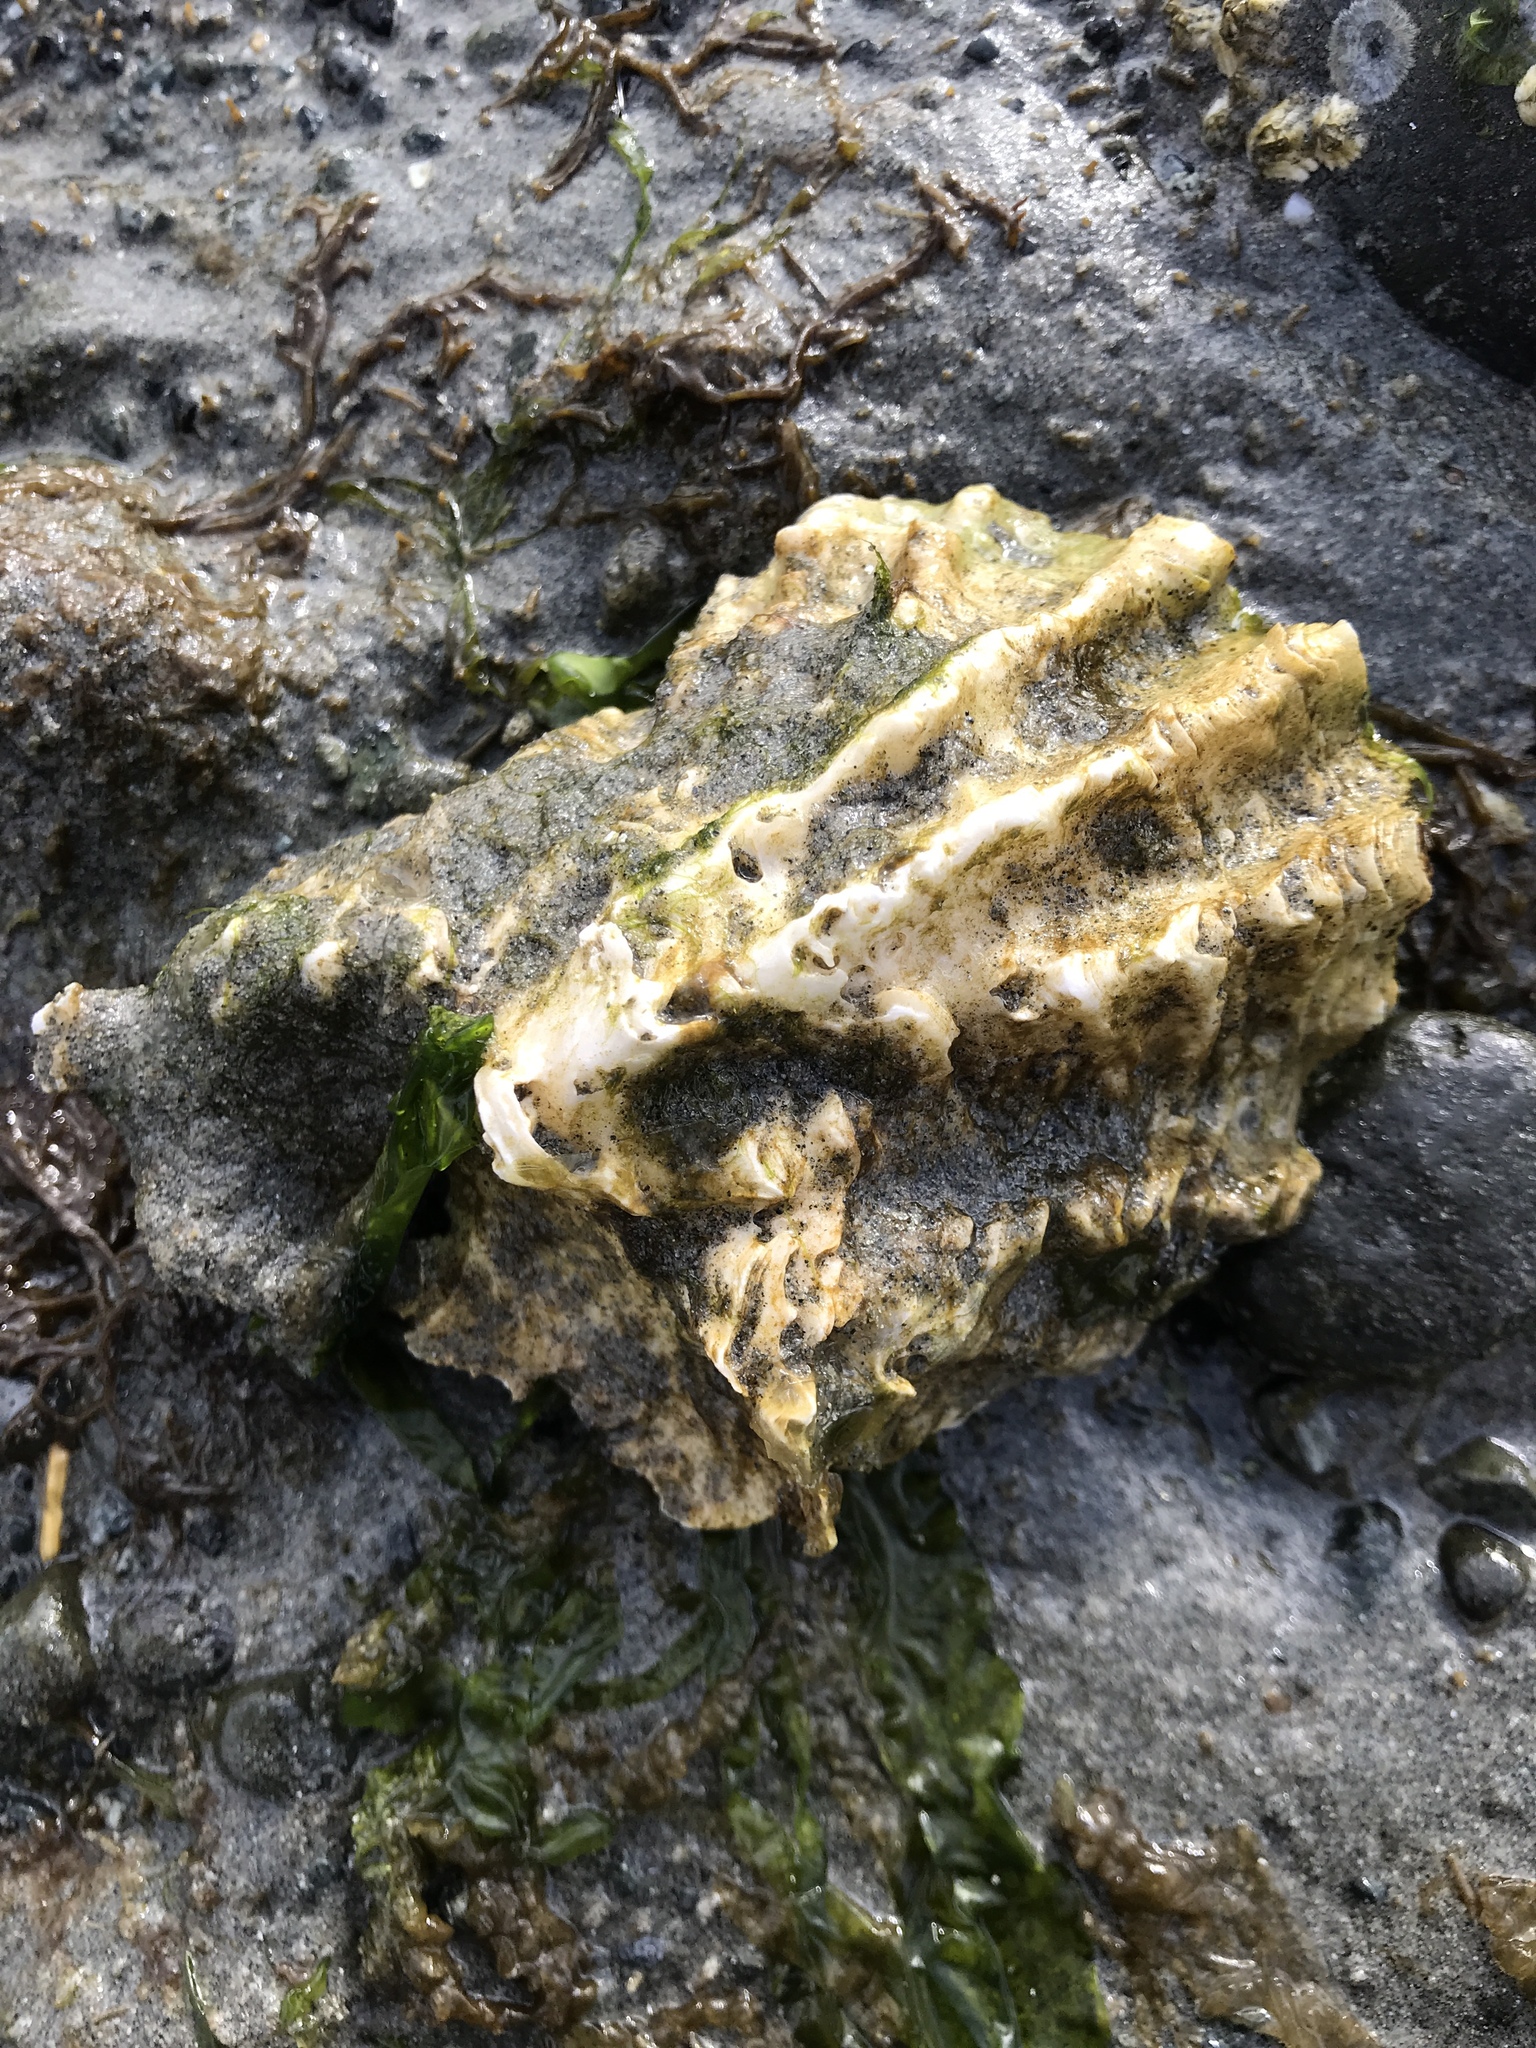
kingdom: Animalia
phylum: Mollusca
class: Bivalvia
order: Ostreida
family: Ostreidae
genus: Magallana
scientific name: Magallana gigas
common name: Pacific oyster
